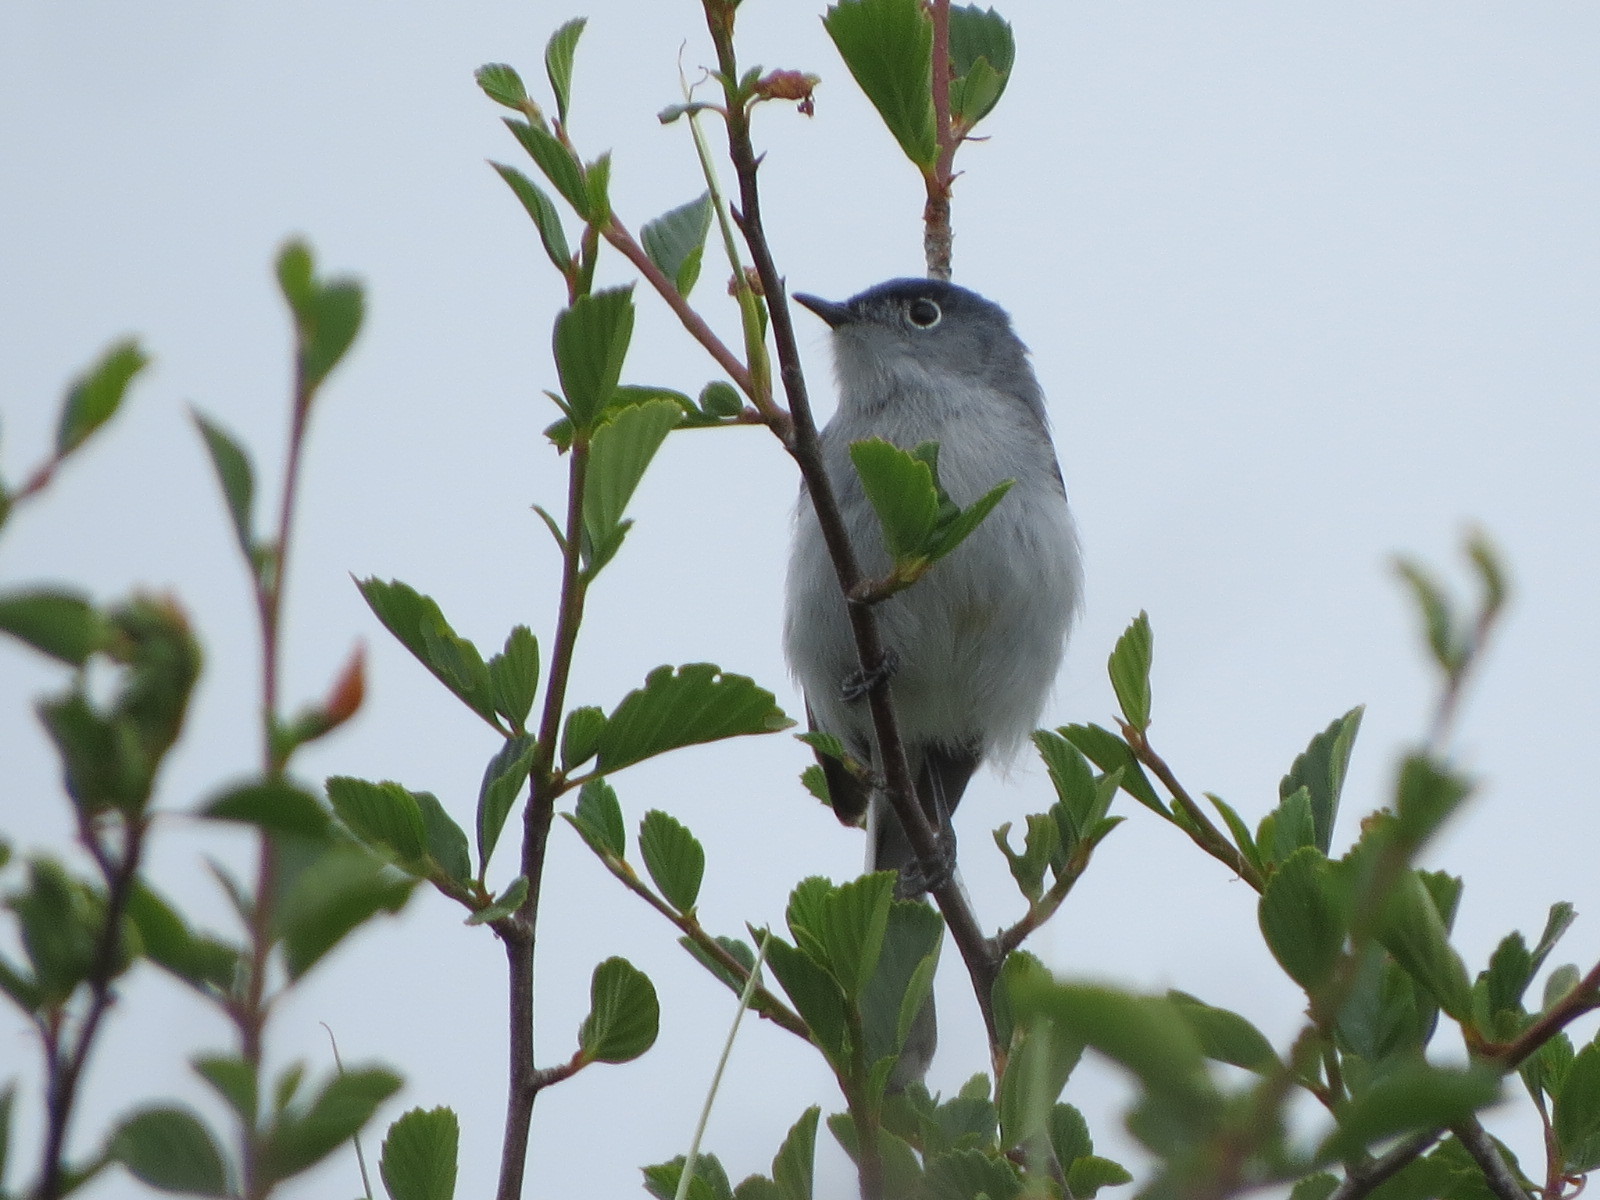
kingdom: Animalia
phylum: Chordata
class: Aves
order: Passeriformes
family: Polioptilidae
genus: Polioptila
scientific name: Polioptila caerulea
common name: Blue-gray gnatcatcher
